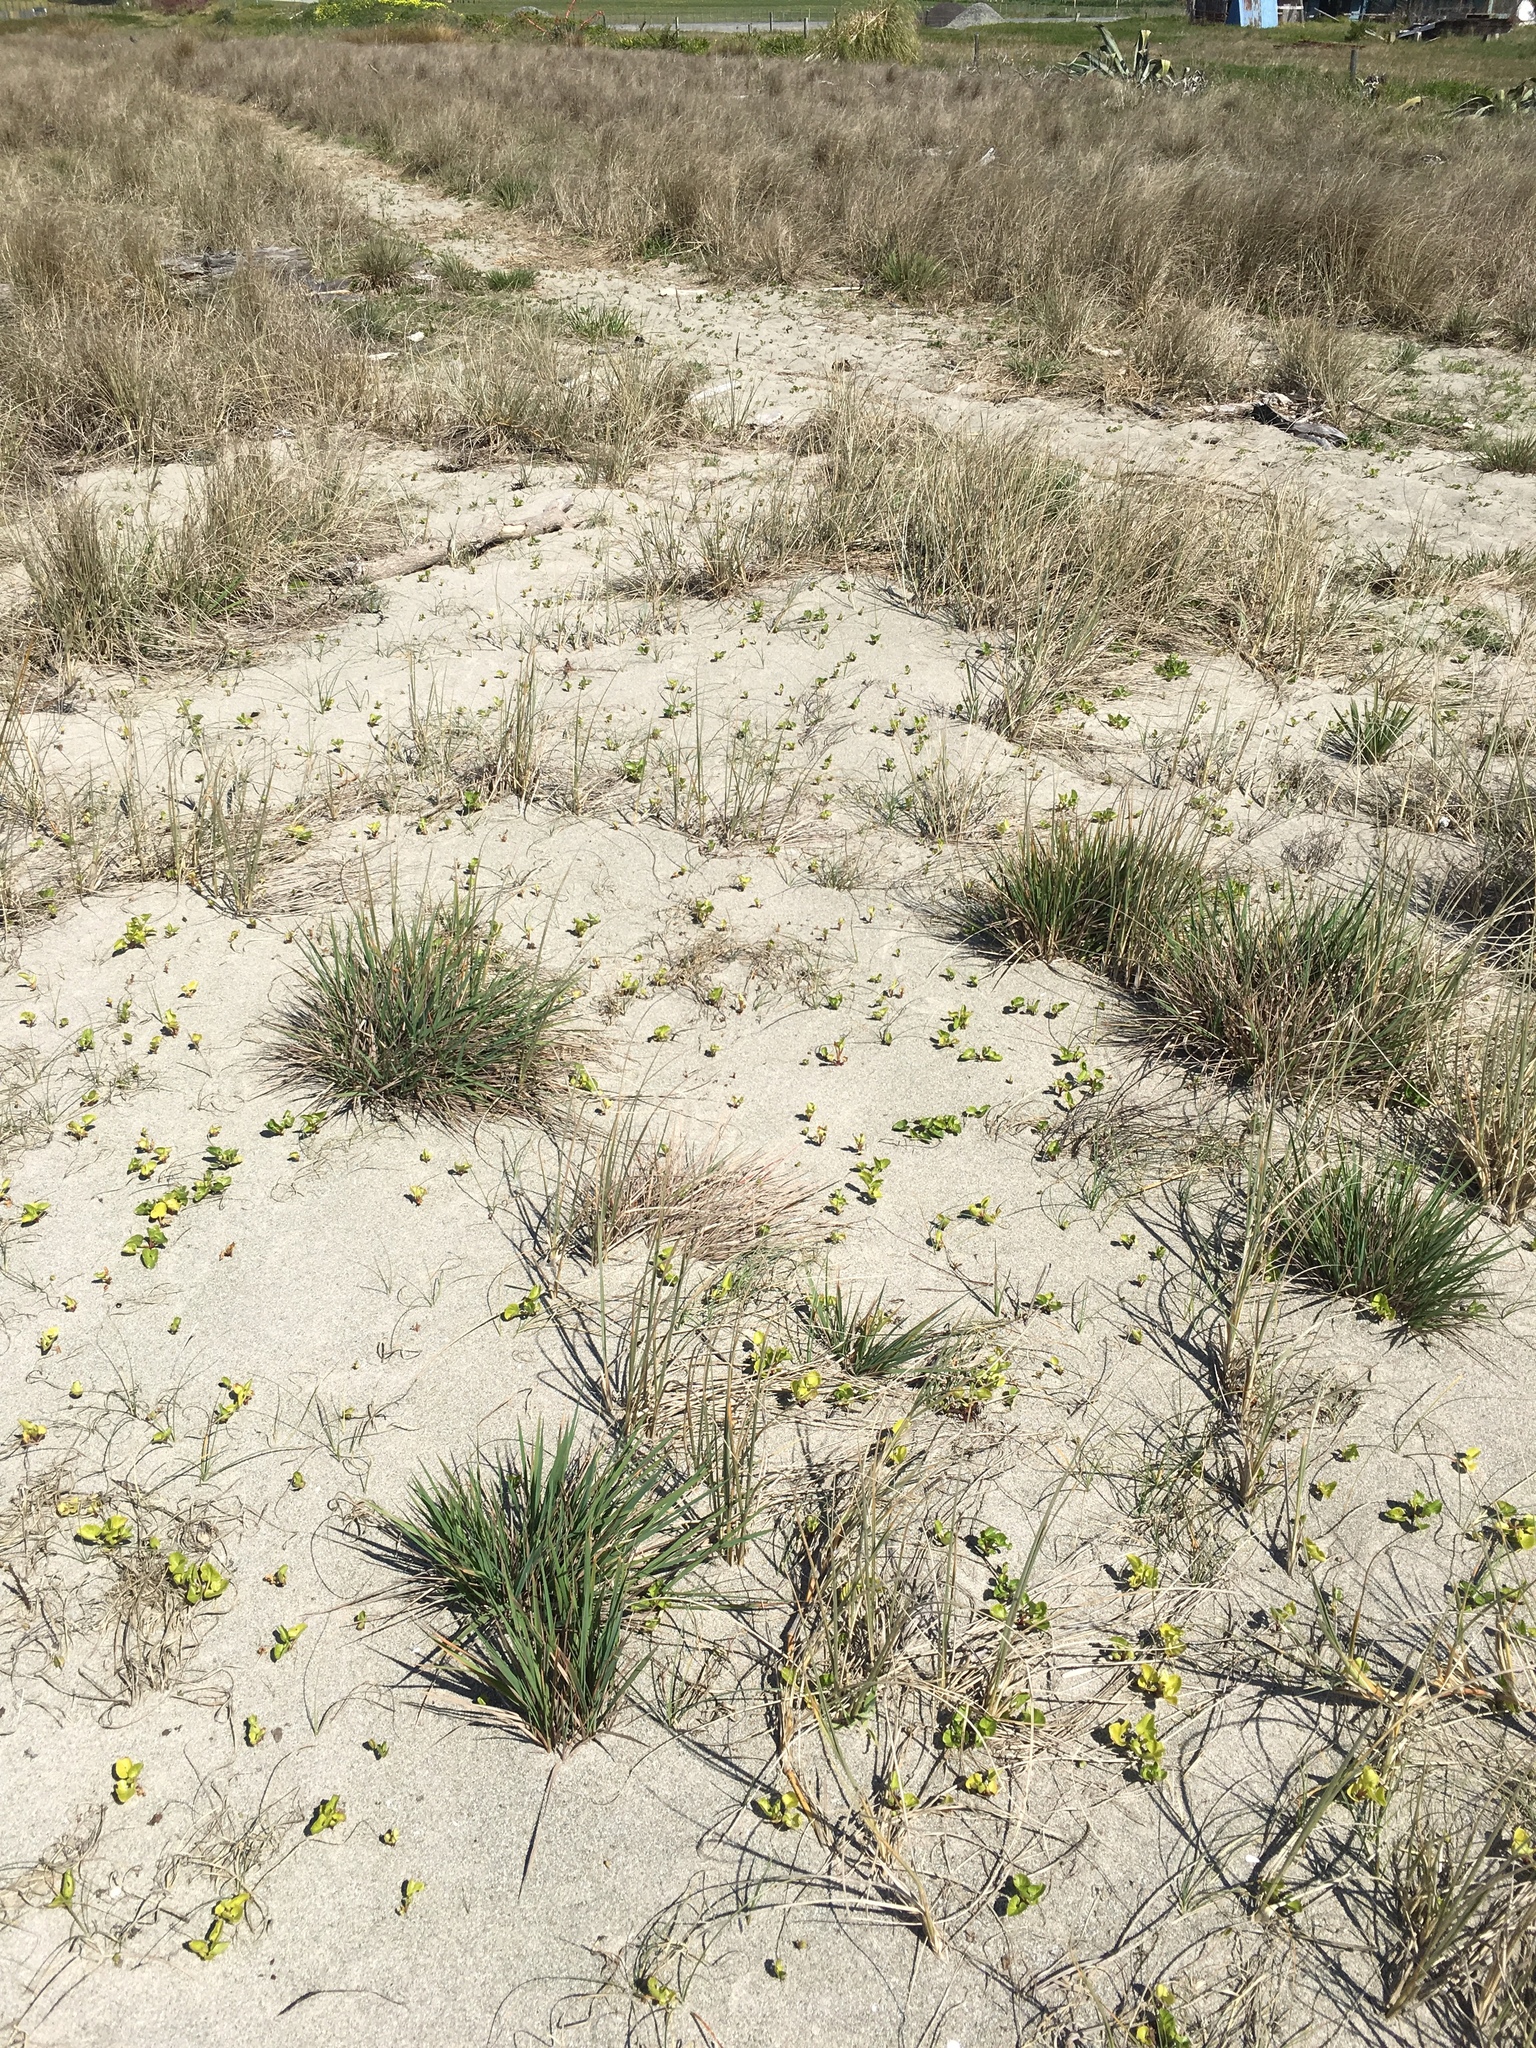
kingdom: Plantae
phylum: Tracheophyta
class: Liliopsida
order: Poales
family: Poaceae
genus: Lachnagrostis
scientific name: Lachnagrostis billardierei
